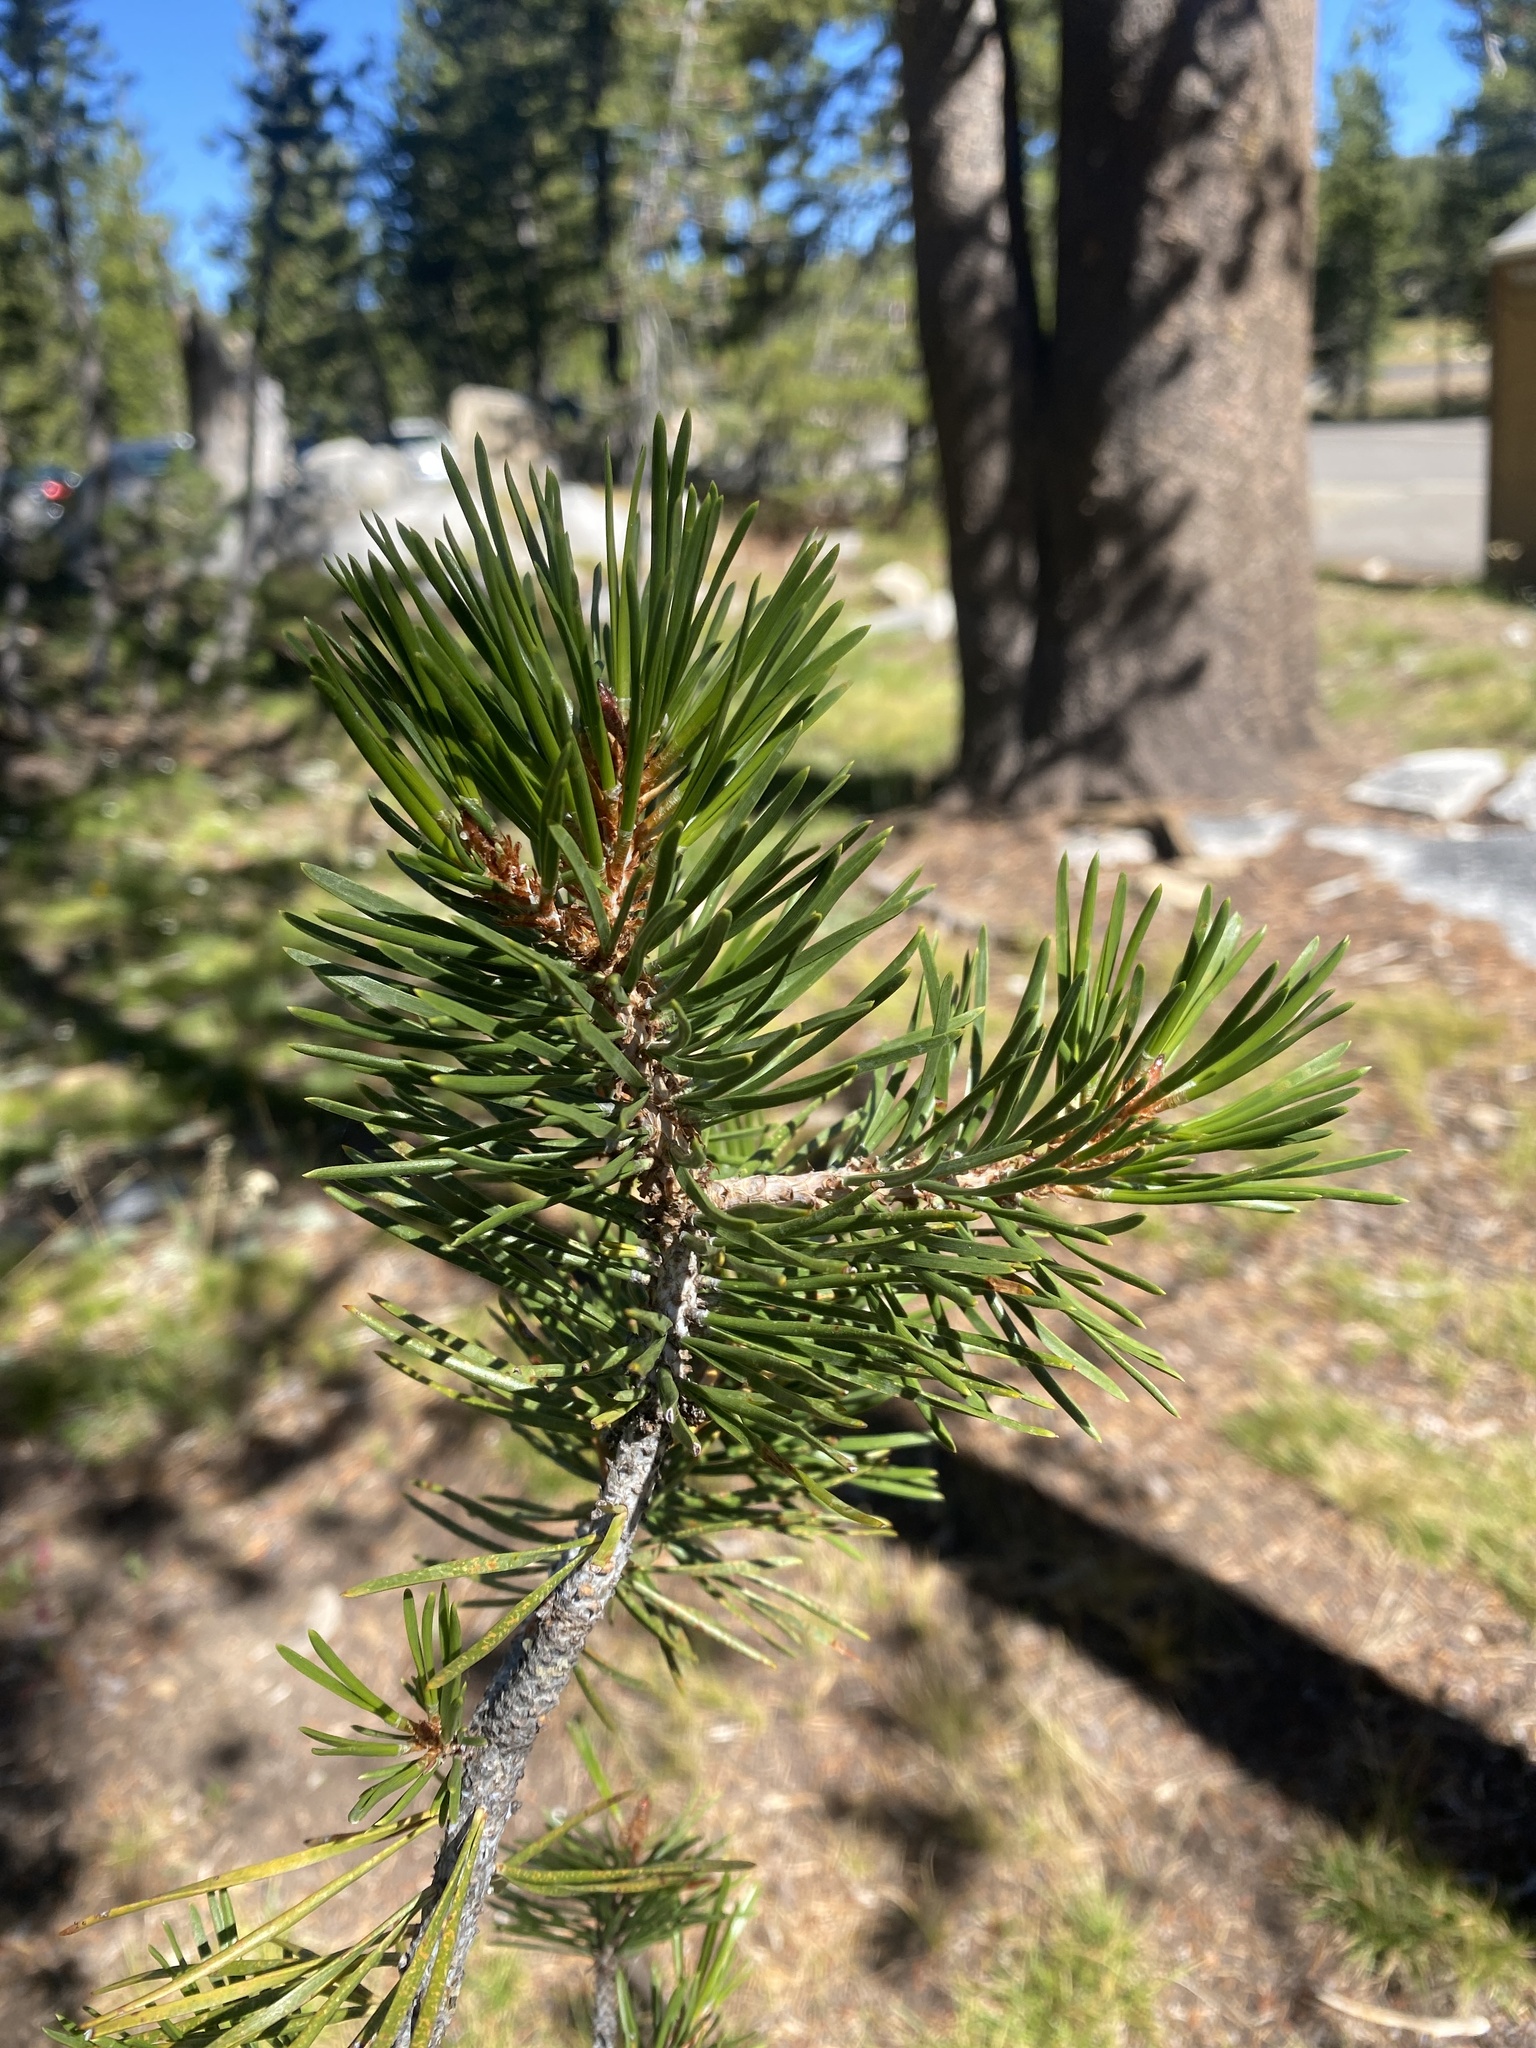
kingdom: Plantae
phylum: Tracheophyta
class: Pinopsida
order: Pinales
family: Pinaceae
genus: Pinus
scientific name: Pinus contorta
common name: Lodgepole pine
